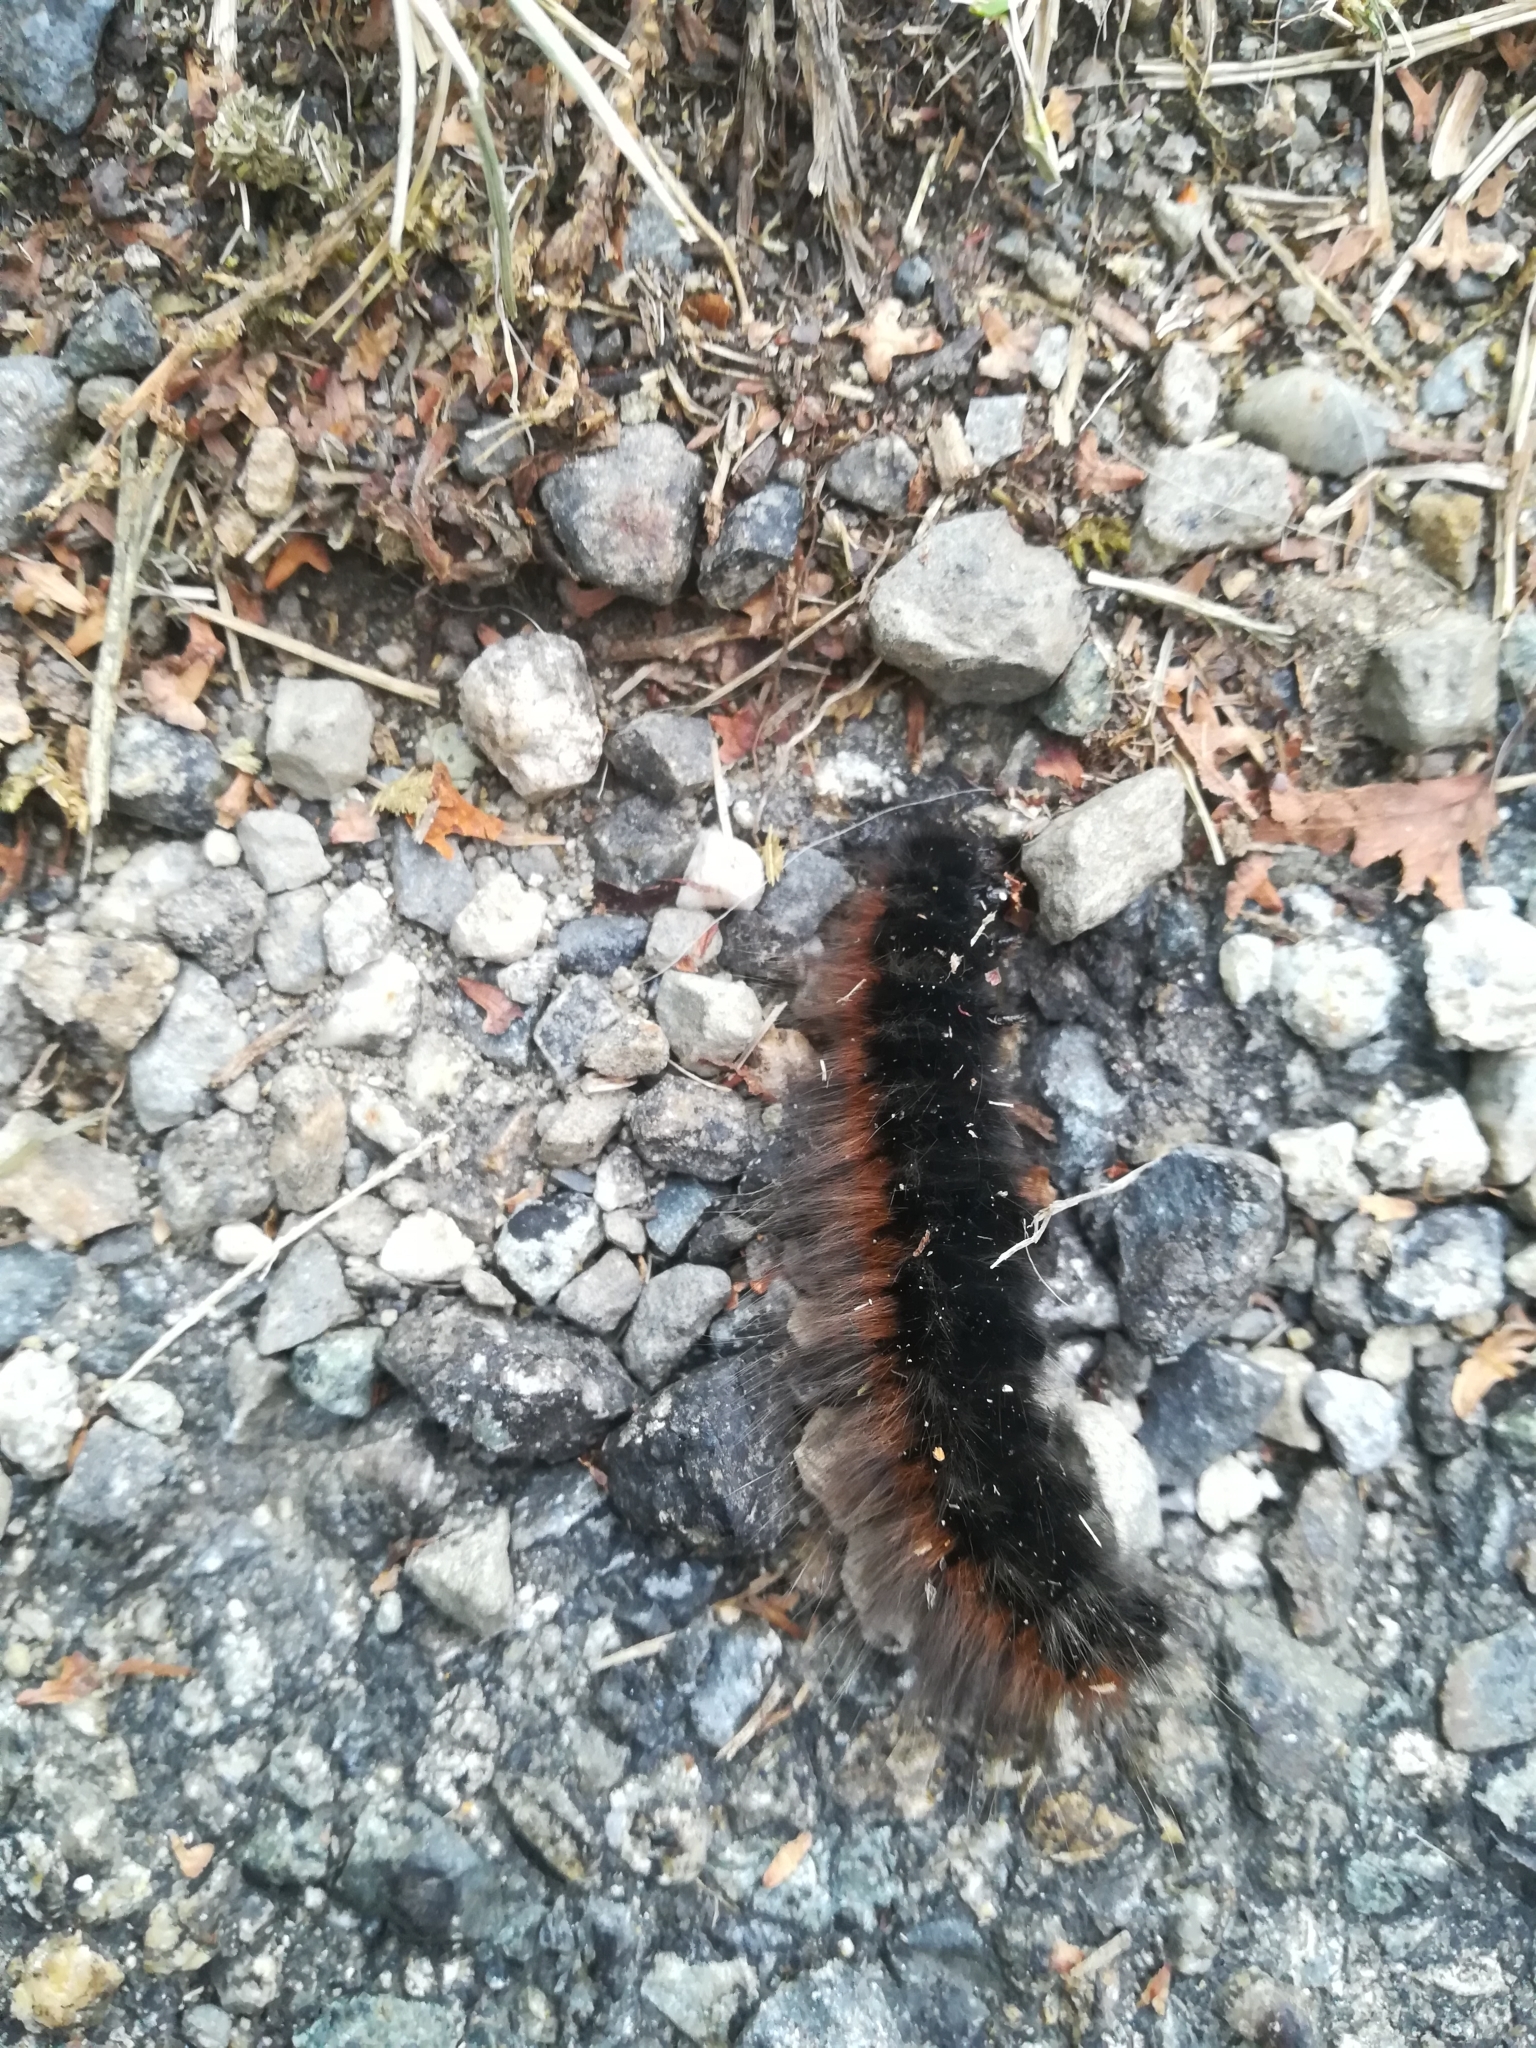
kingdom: Animalia
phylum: Arthropoda
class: Insecta
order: Lepidoptera
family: Lasiocampidae
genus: Macrothylacia
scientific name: Macrothylacia rubi
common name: Fox moth
